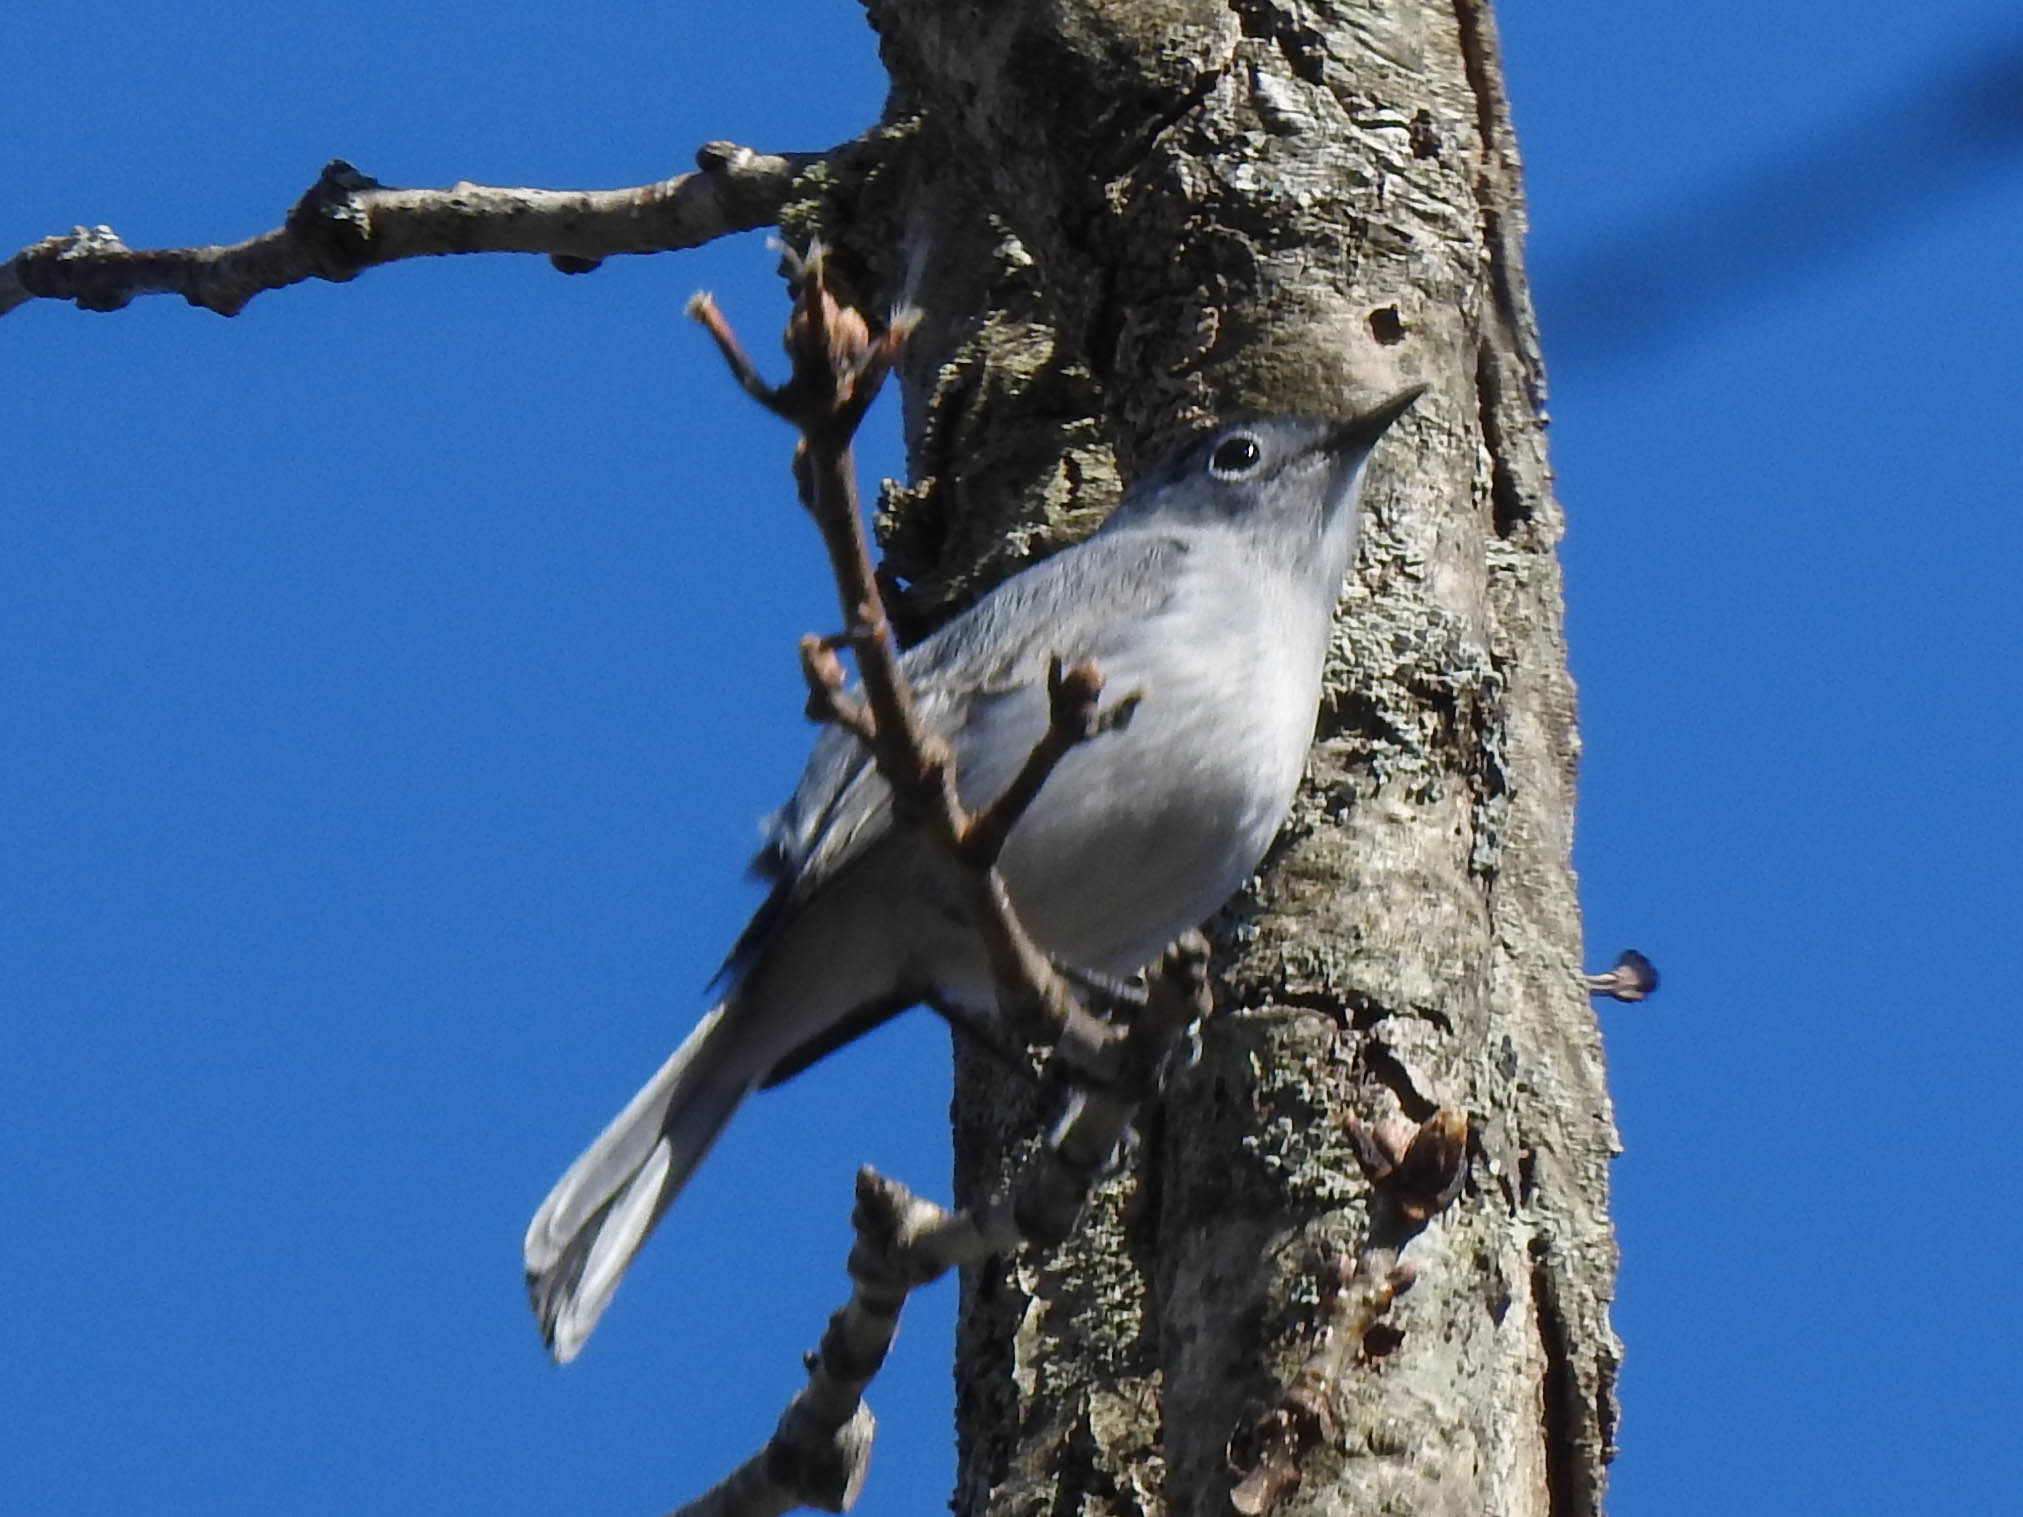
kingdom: Animalia
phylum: Chordata
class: Aves
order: Passeriformes
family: Polioptilidae
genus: Polioptila
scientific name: Polioptila caerulea
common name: Blue-gray gnatcatcher
